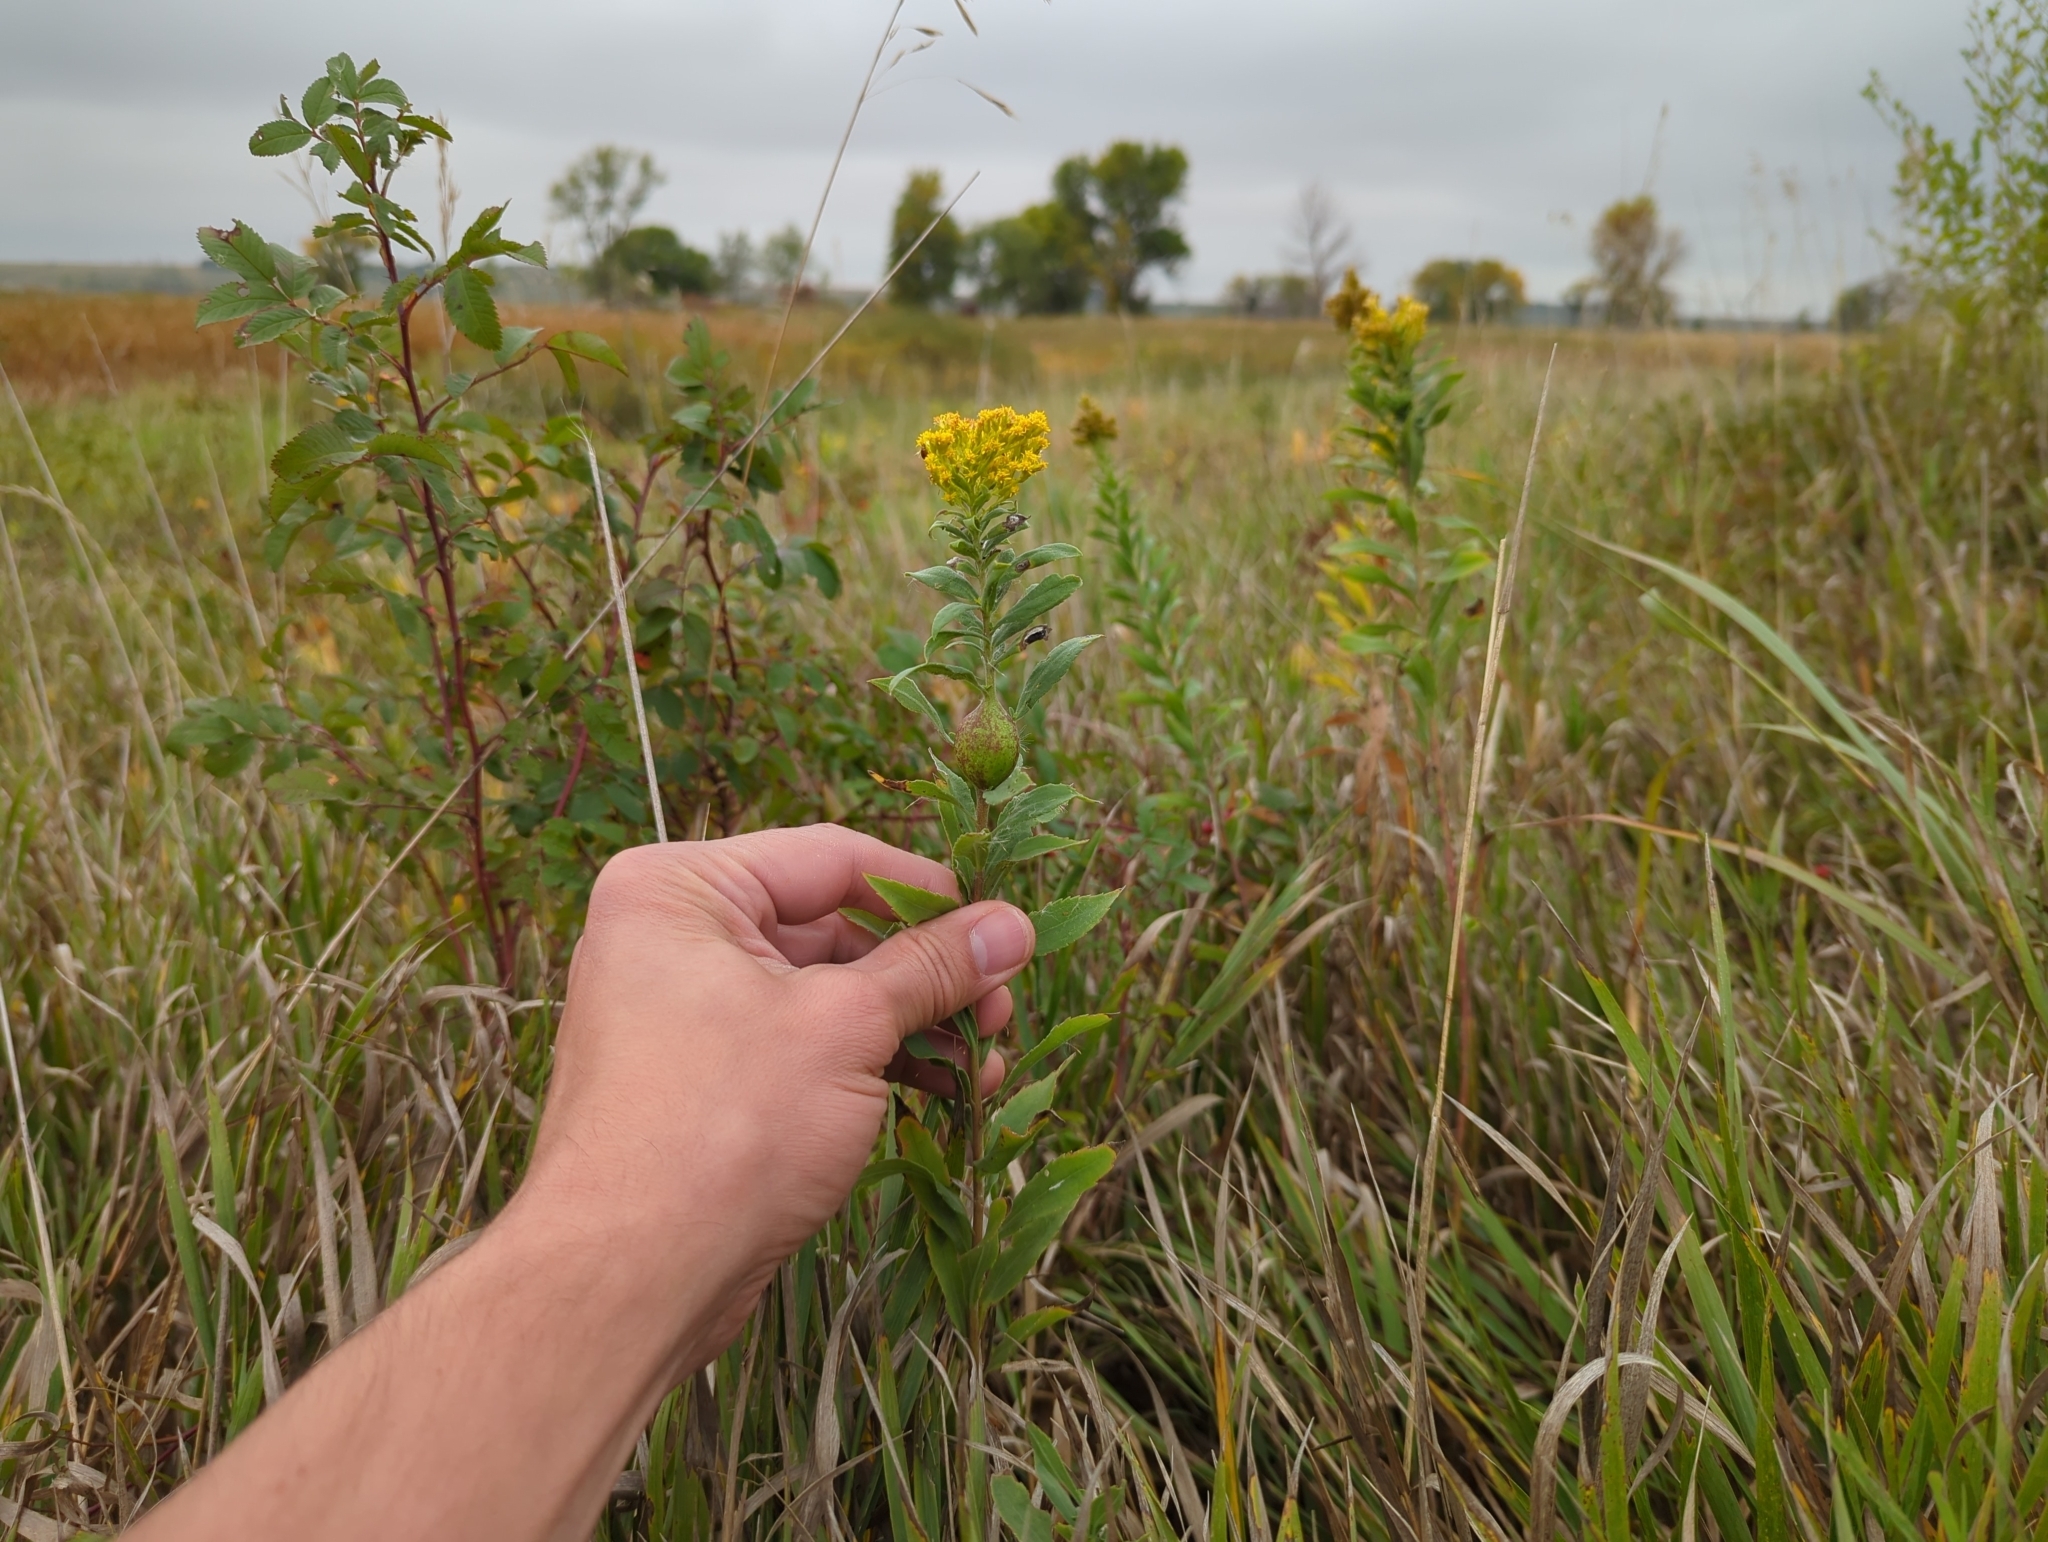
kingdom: Animalia
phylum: Arthropoda
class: Insecta
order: Diptera
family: Tephritidae
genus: Eurosta
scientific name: Eurosta solidaginis
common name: Goldenrod gall fly
